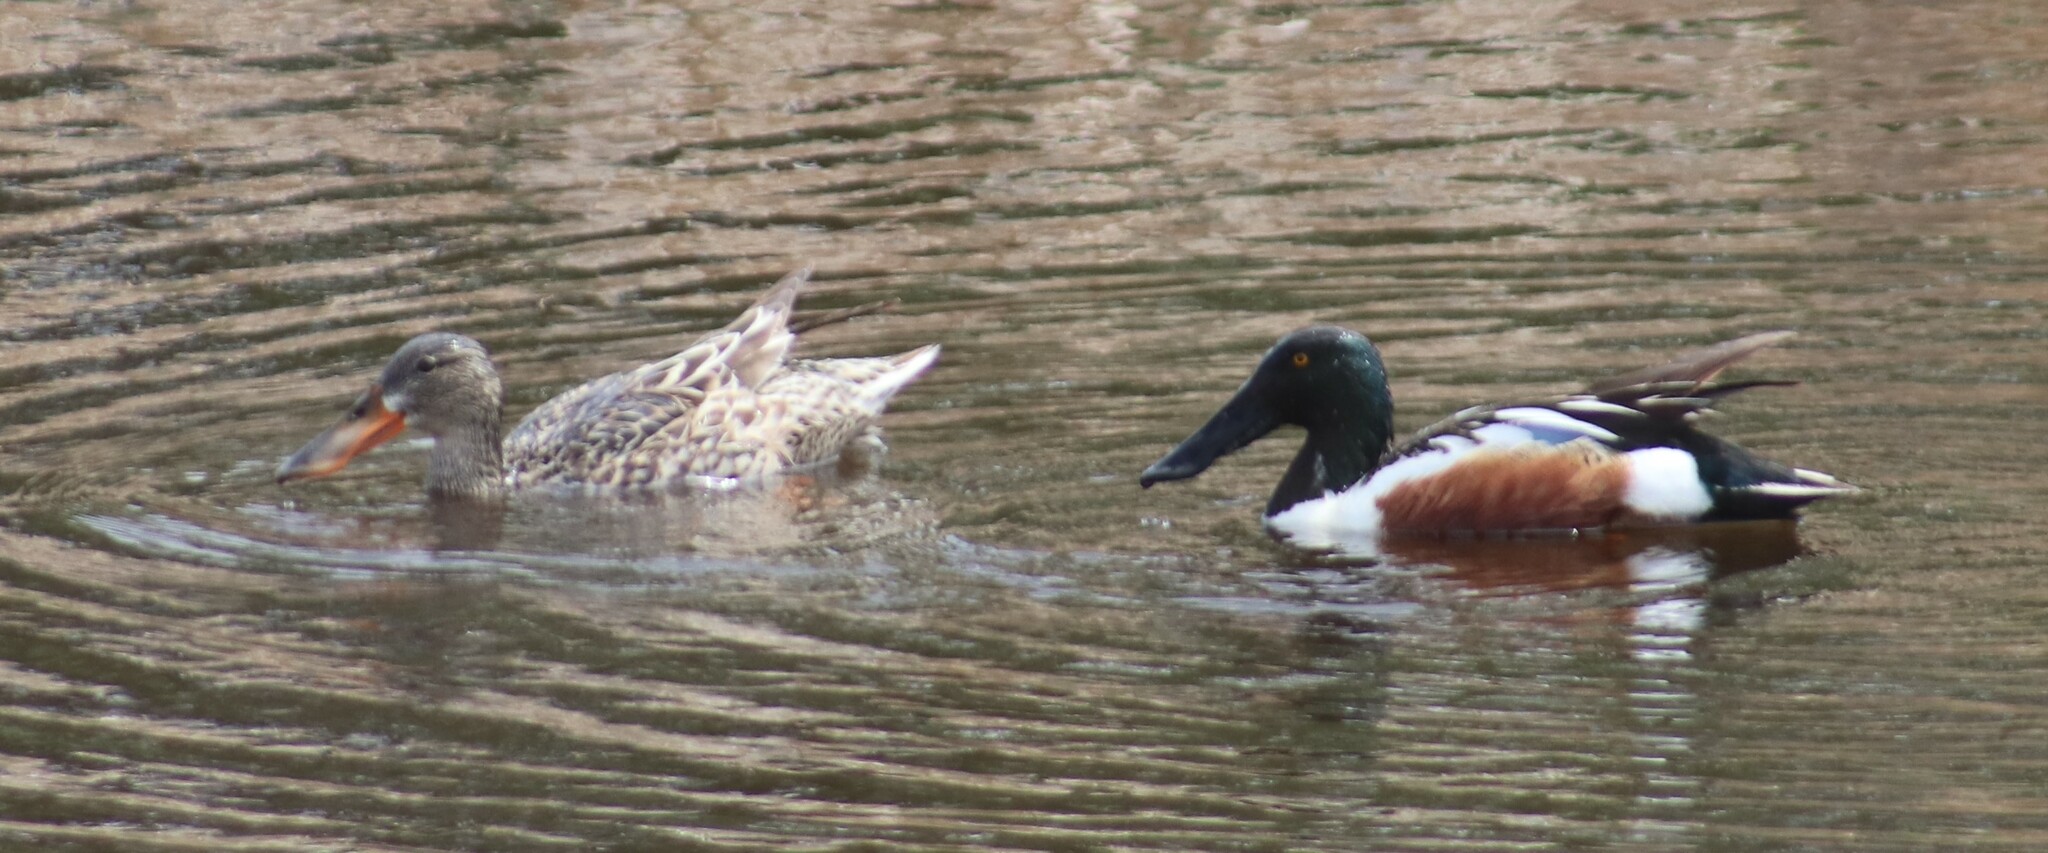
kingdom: Animalia
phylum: Chordata
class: Aves
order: Anseriformes
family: Anatidae
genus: Spatula
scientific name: Spatula clypeata
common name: Northern shoveler
